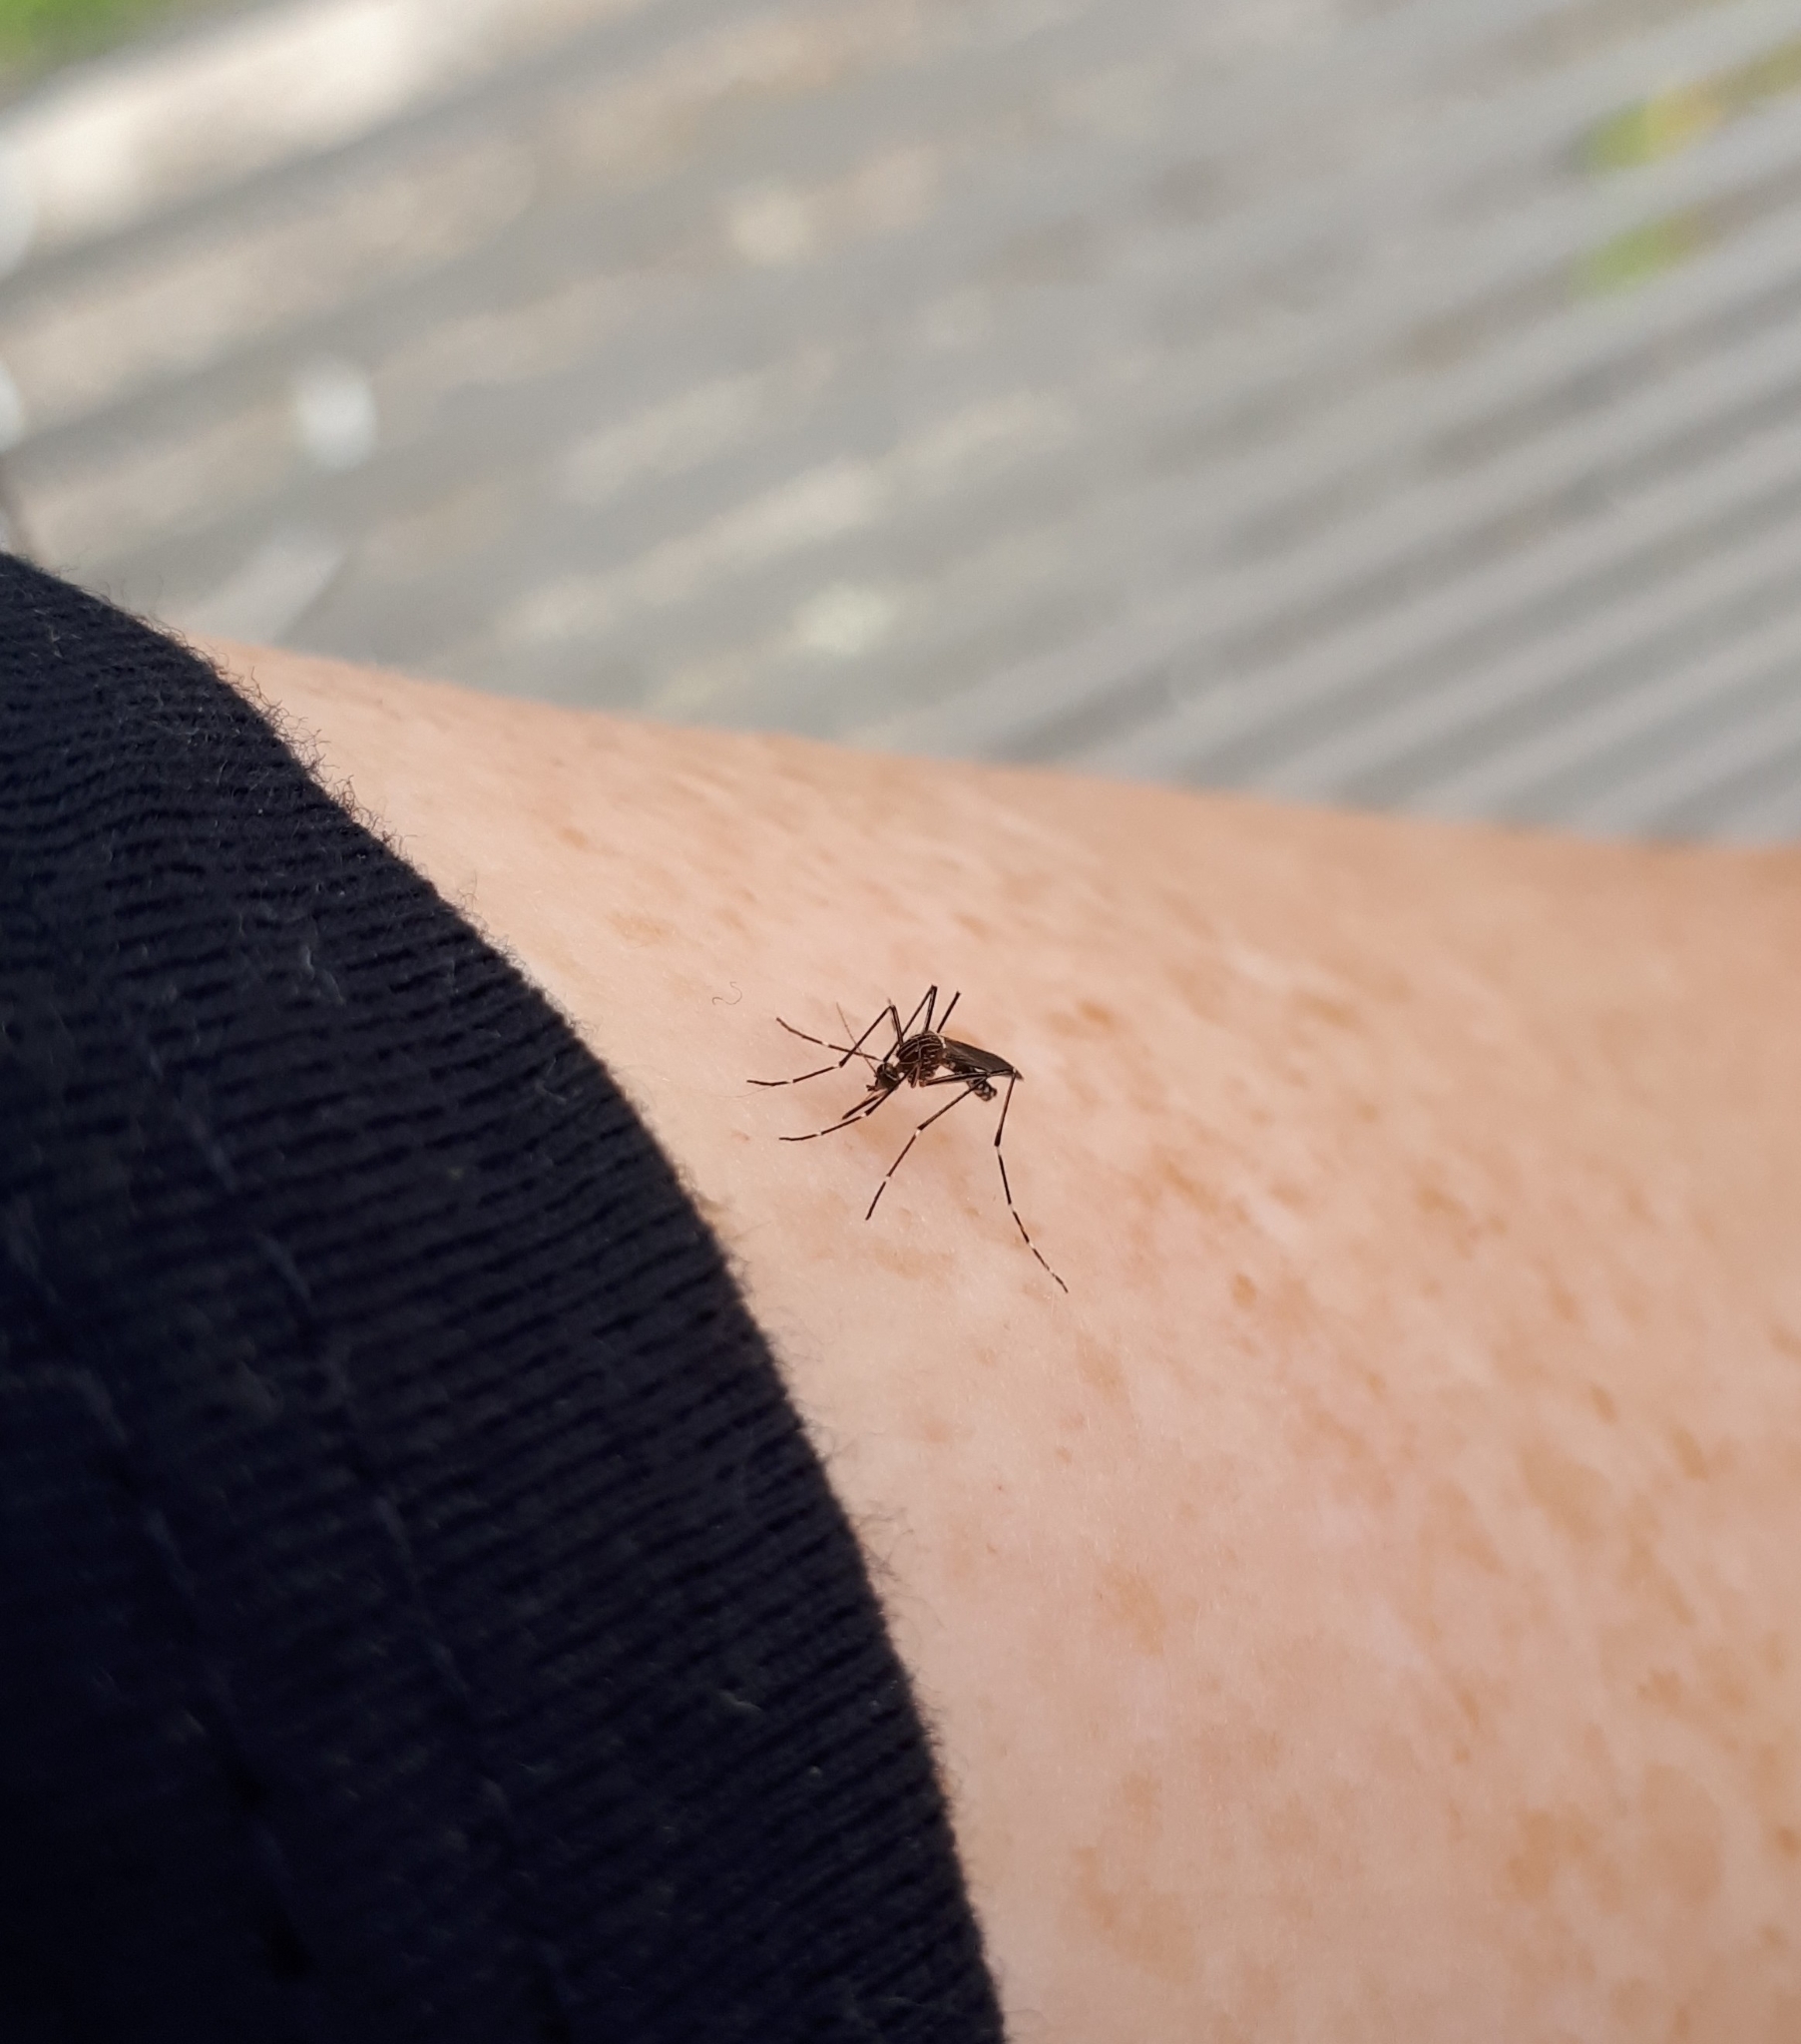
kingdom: Animalia
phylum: Arthropoda
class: Insecta
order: Diptera
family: Culicidae
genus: Aedes
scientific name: Aedes notoscriptus
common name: Australian backyard mosquito
